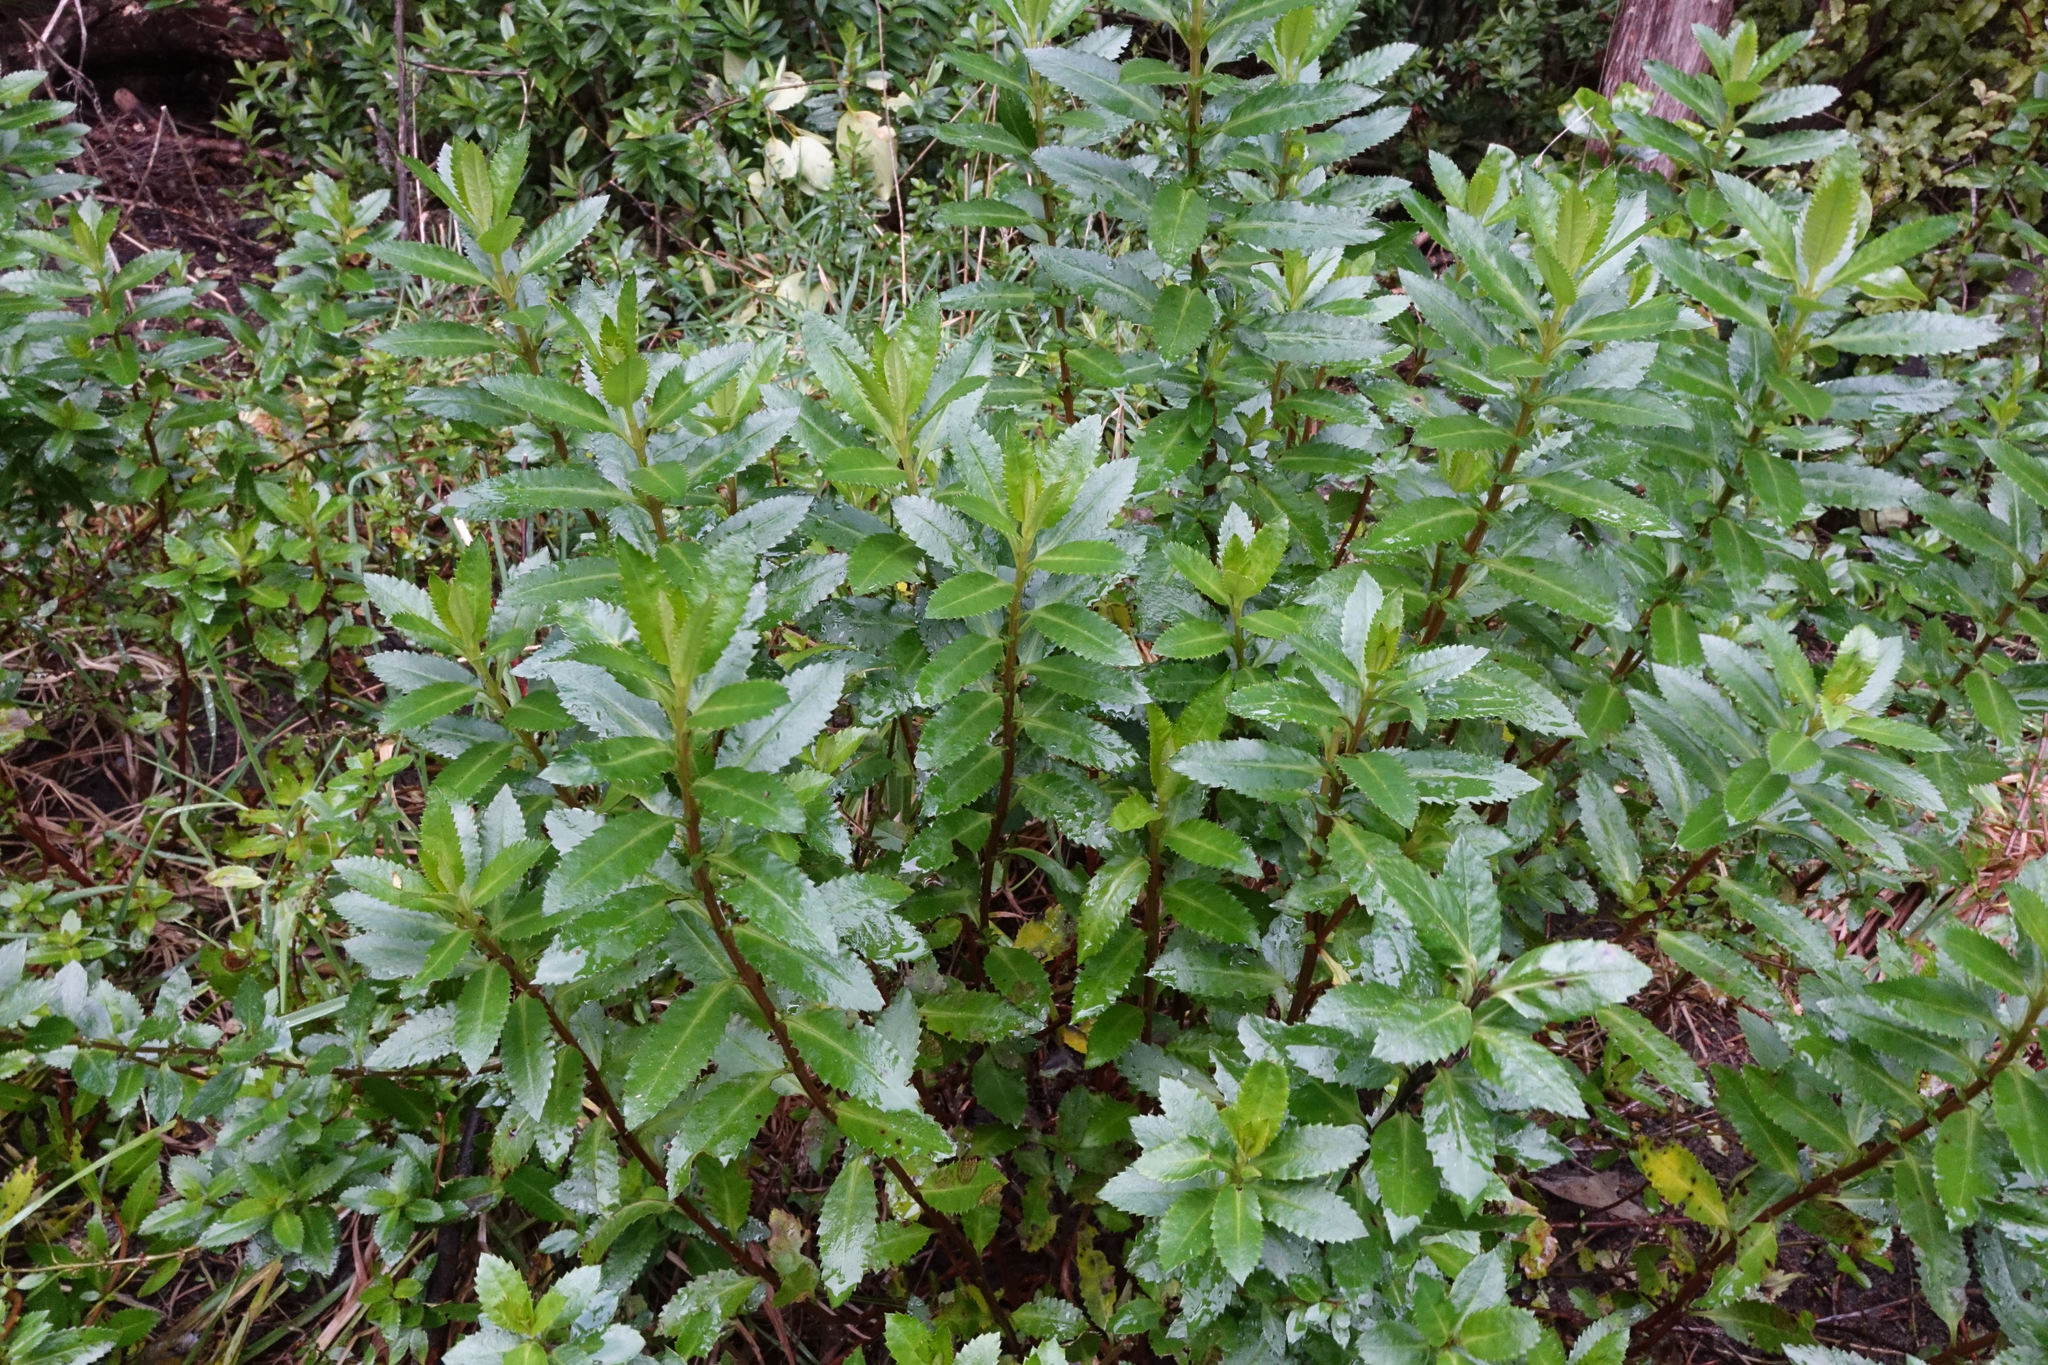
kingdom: Plantae
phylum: Tracheophyta
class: Magnoliopsida
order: Saxifragales
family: Haloragaceae
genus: Haloragis
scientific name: Haloragis erecta
